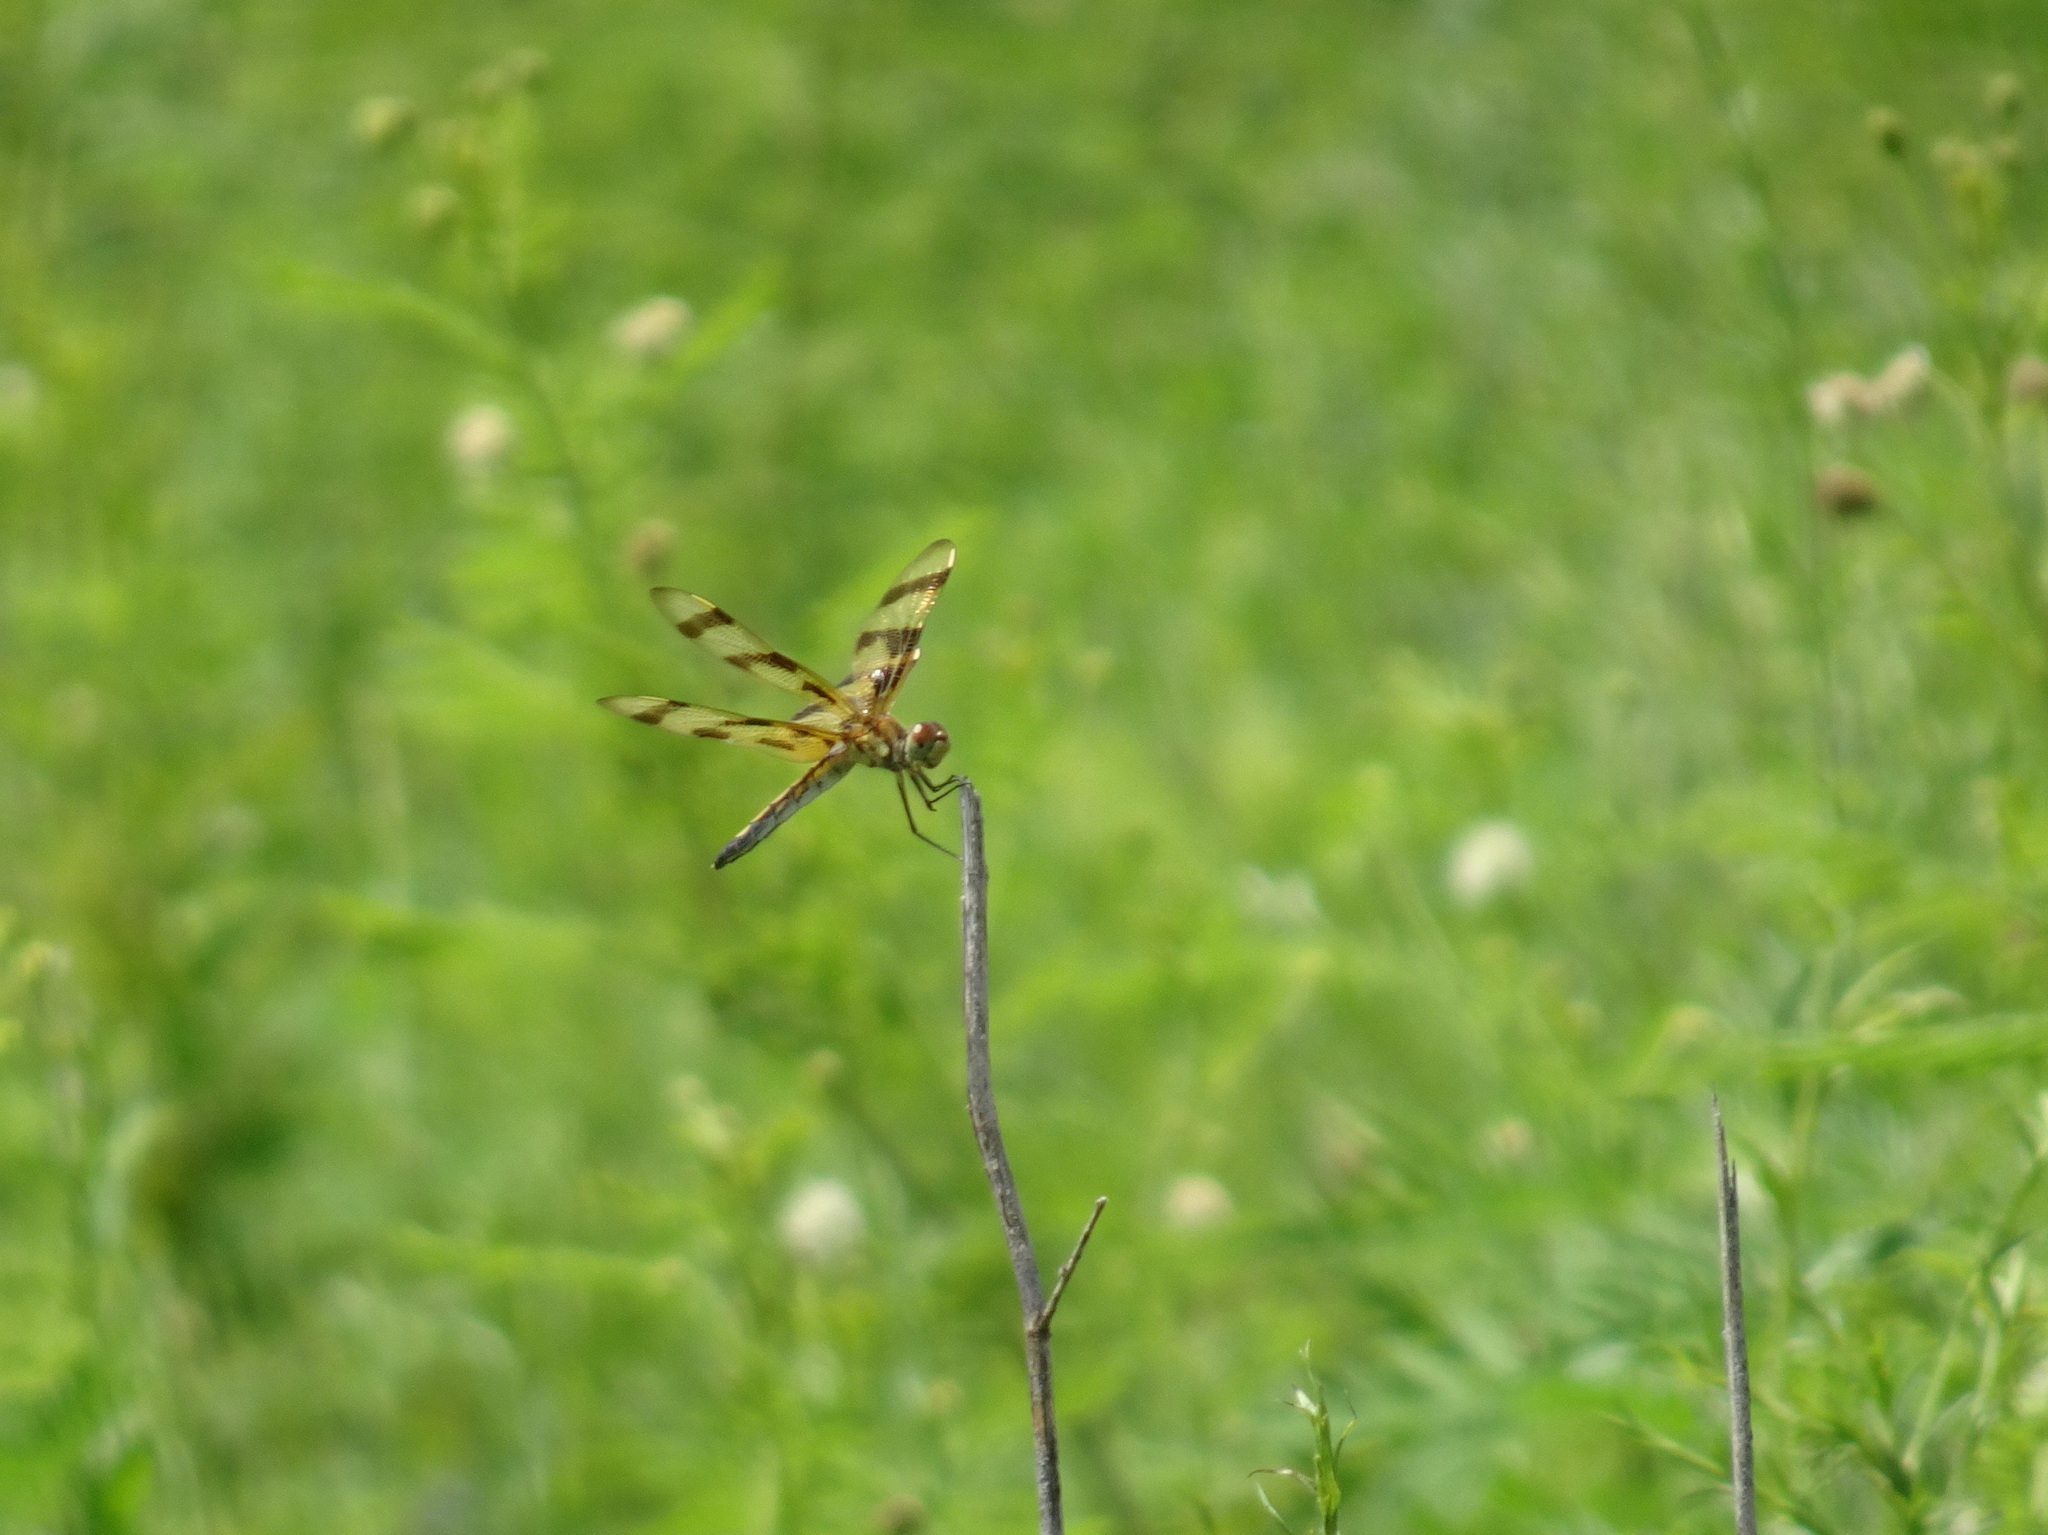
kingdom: Animalia
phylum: Arthropoda
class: Insecta
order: Odonata
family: Libellulidae
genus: Celithemis
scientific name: Celithemis eponina
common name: Halloween pennant
